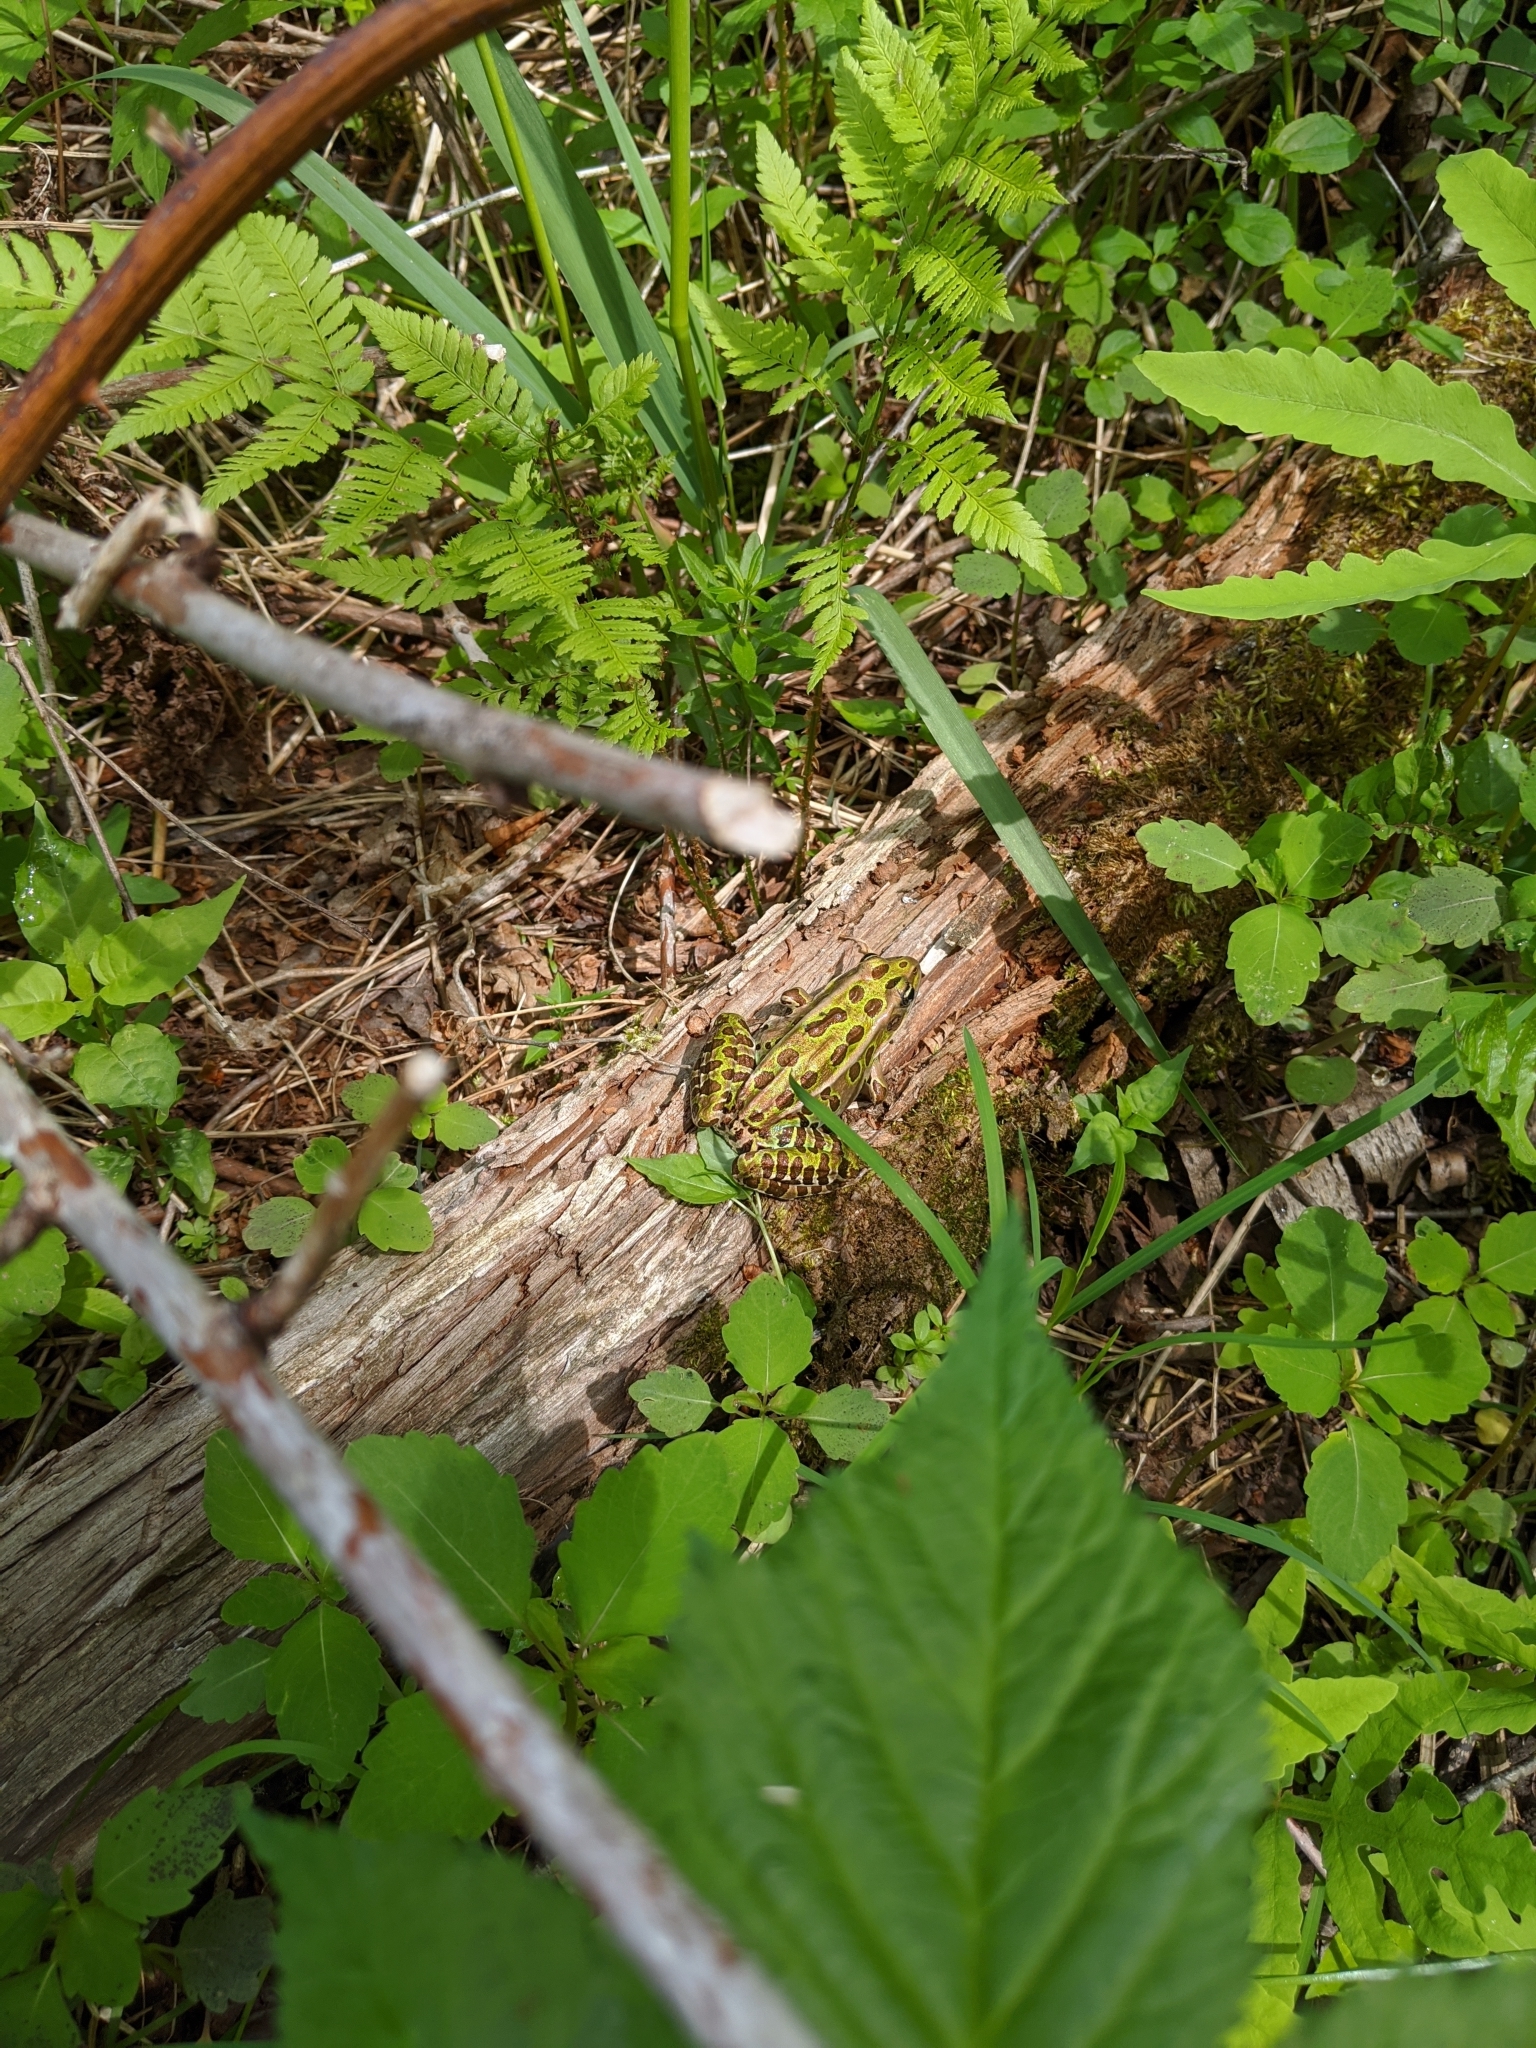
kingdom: Animalia
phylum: Chordata
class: Amphibia
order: Anura
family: Ranidae
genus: Lithobates
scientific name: Lithobates pipiens
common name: Northern leopard frog
